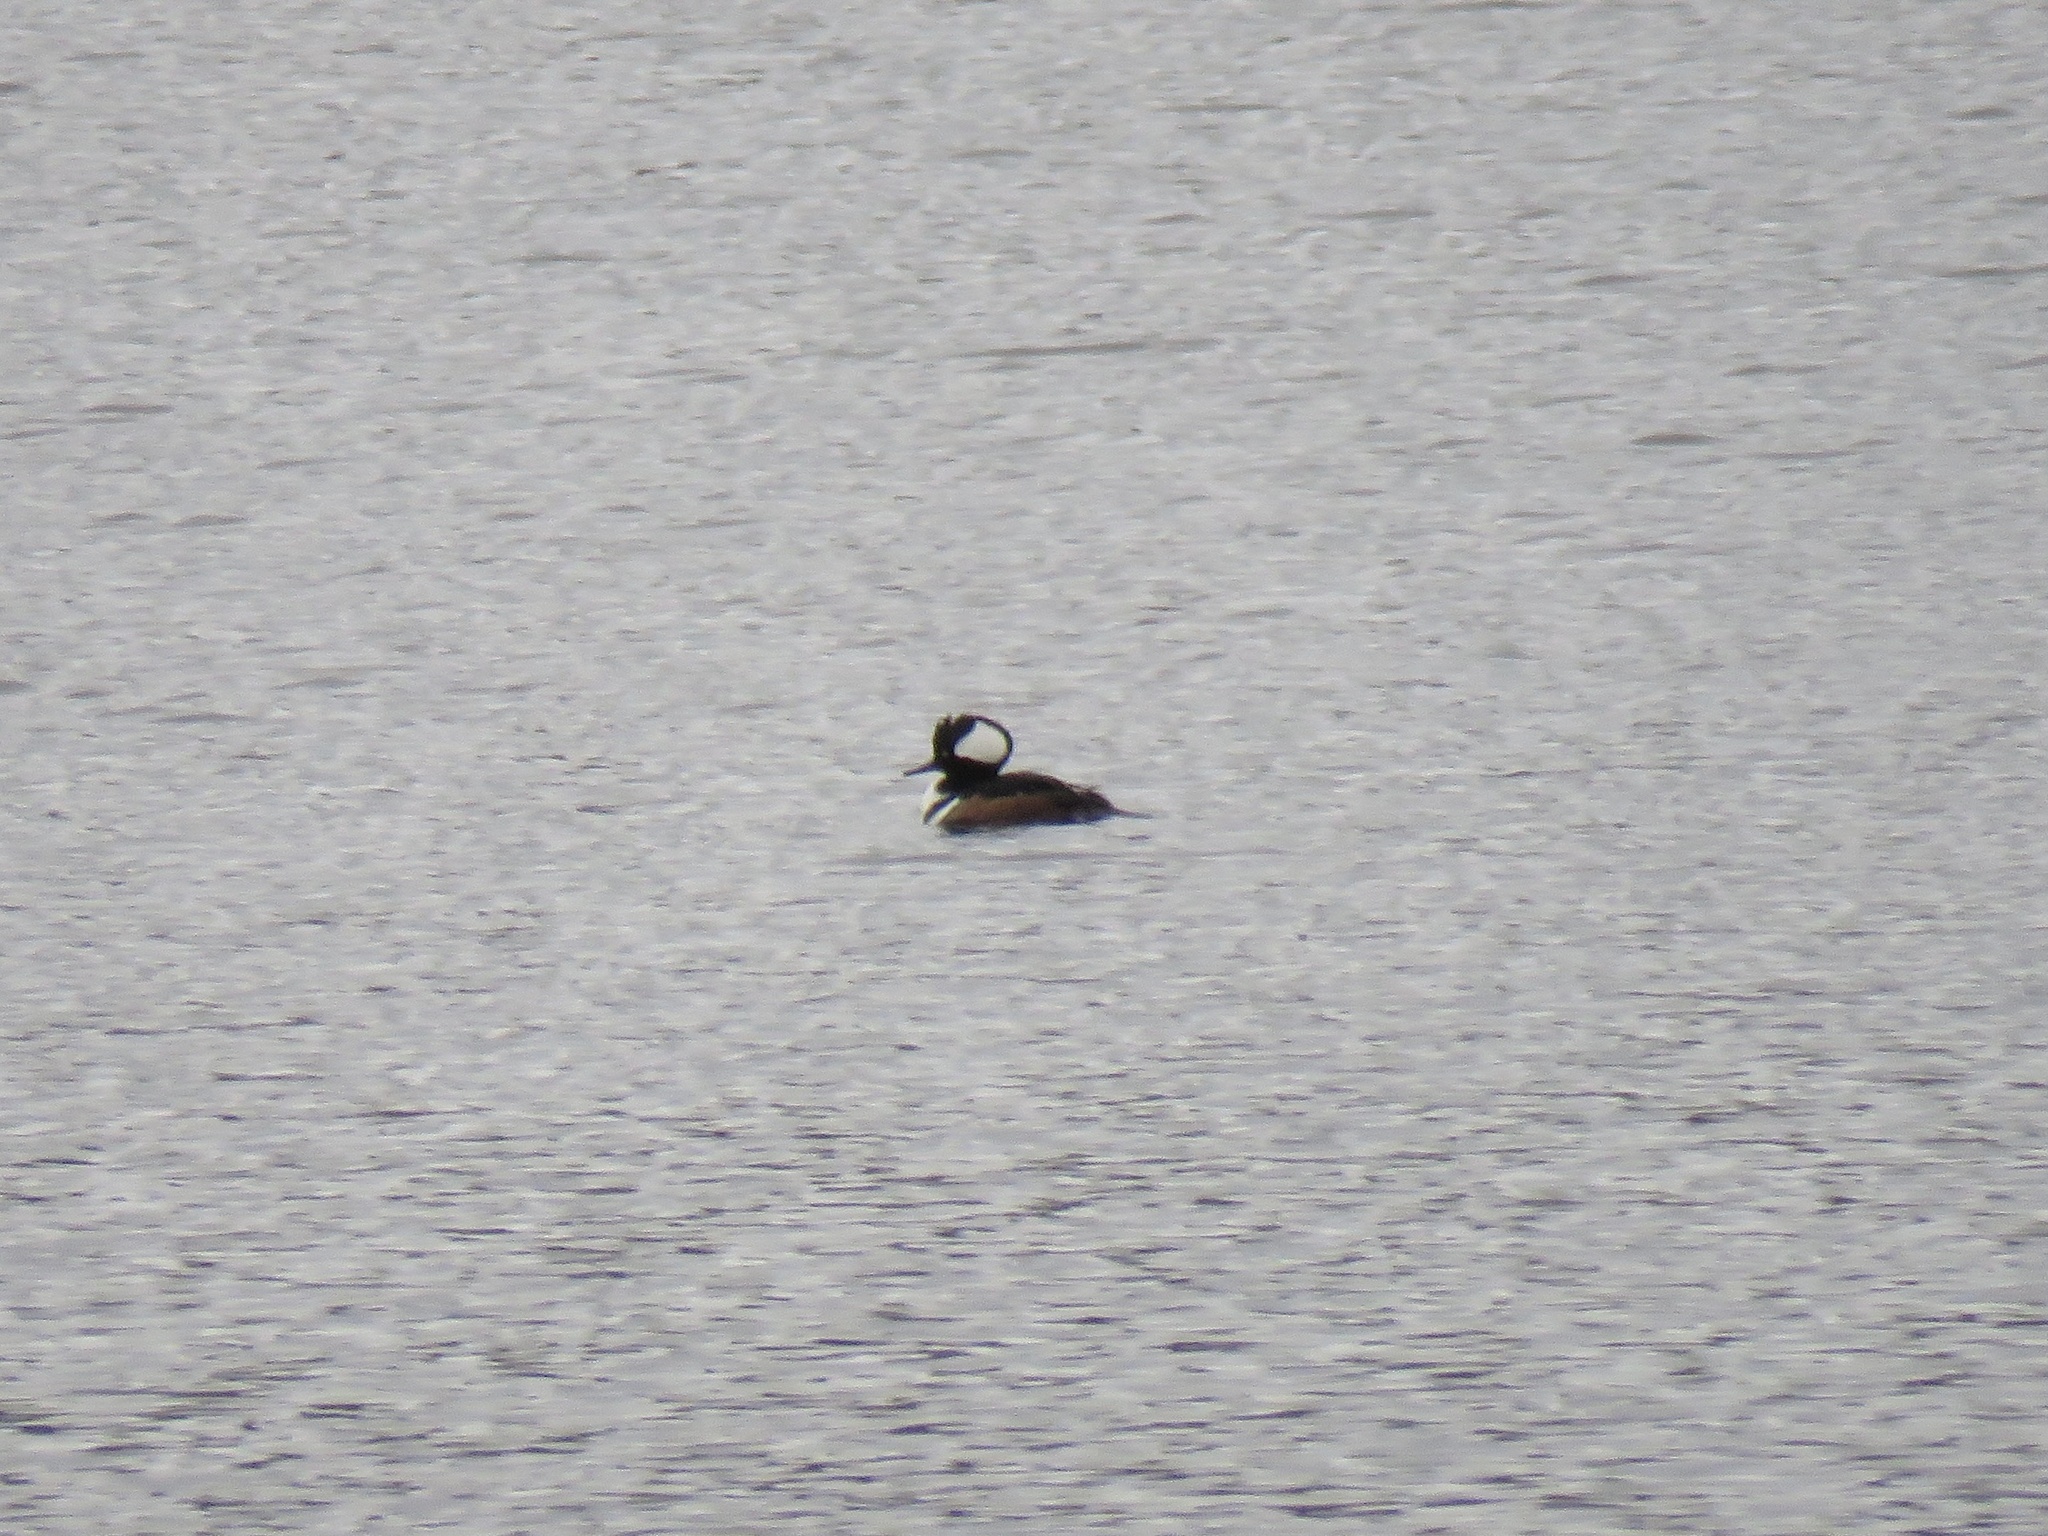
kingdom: Animalia
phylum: Chordata
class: Aves
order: Anseriformes
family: Anatidae
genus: Lophodytes
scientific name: Lophodytes cucullatus
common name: Hooded merganser
